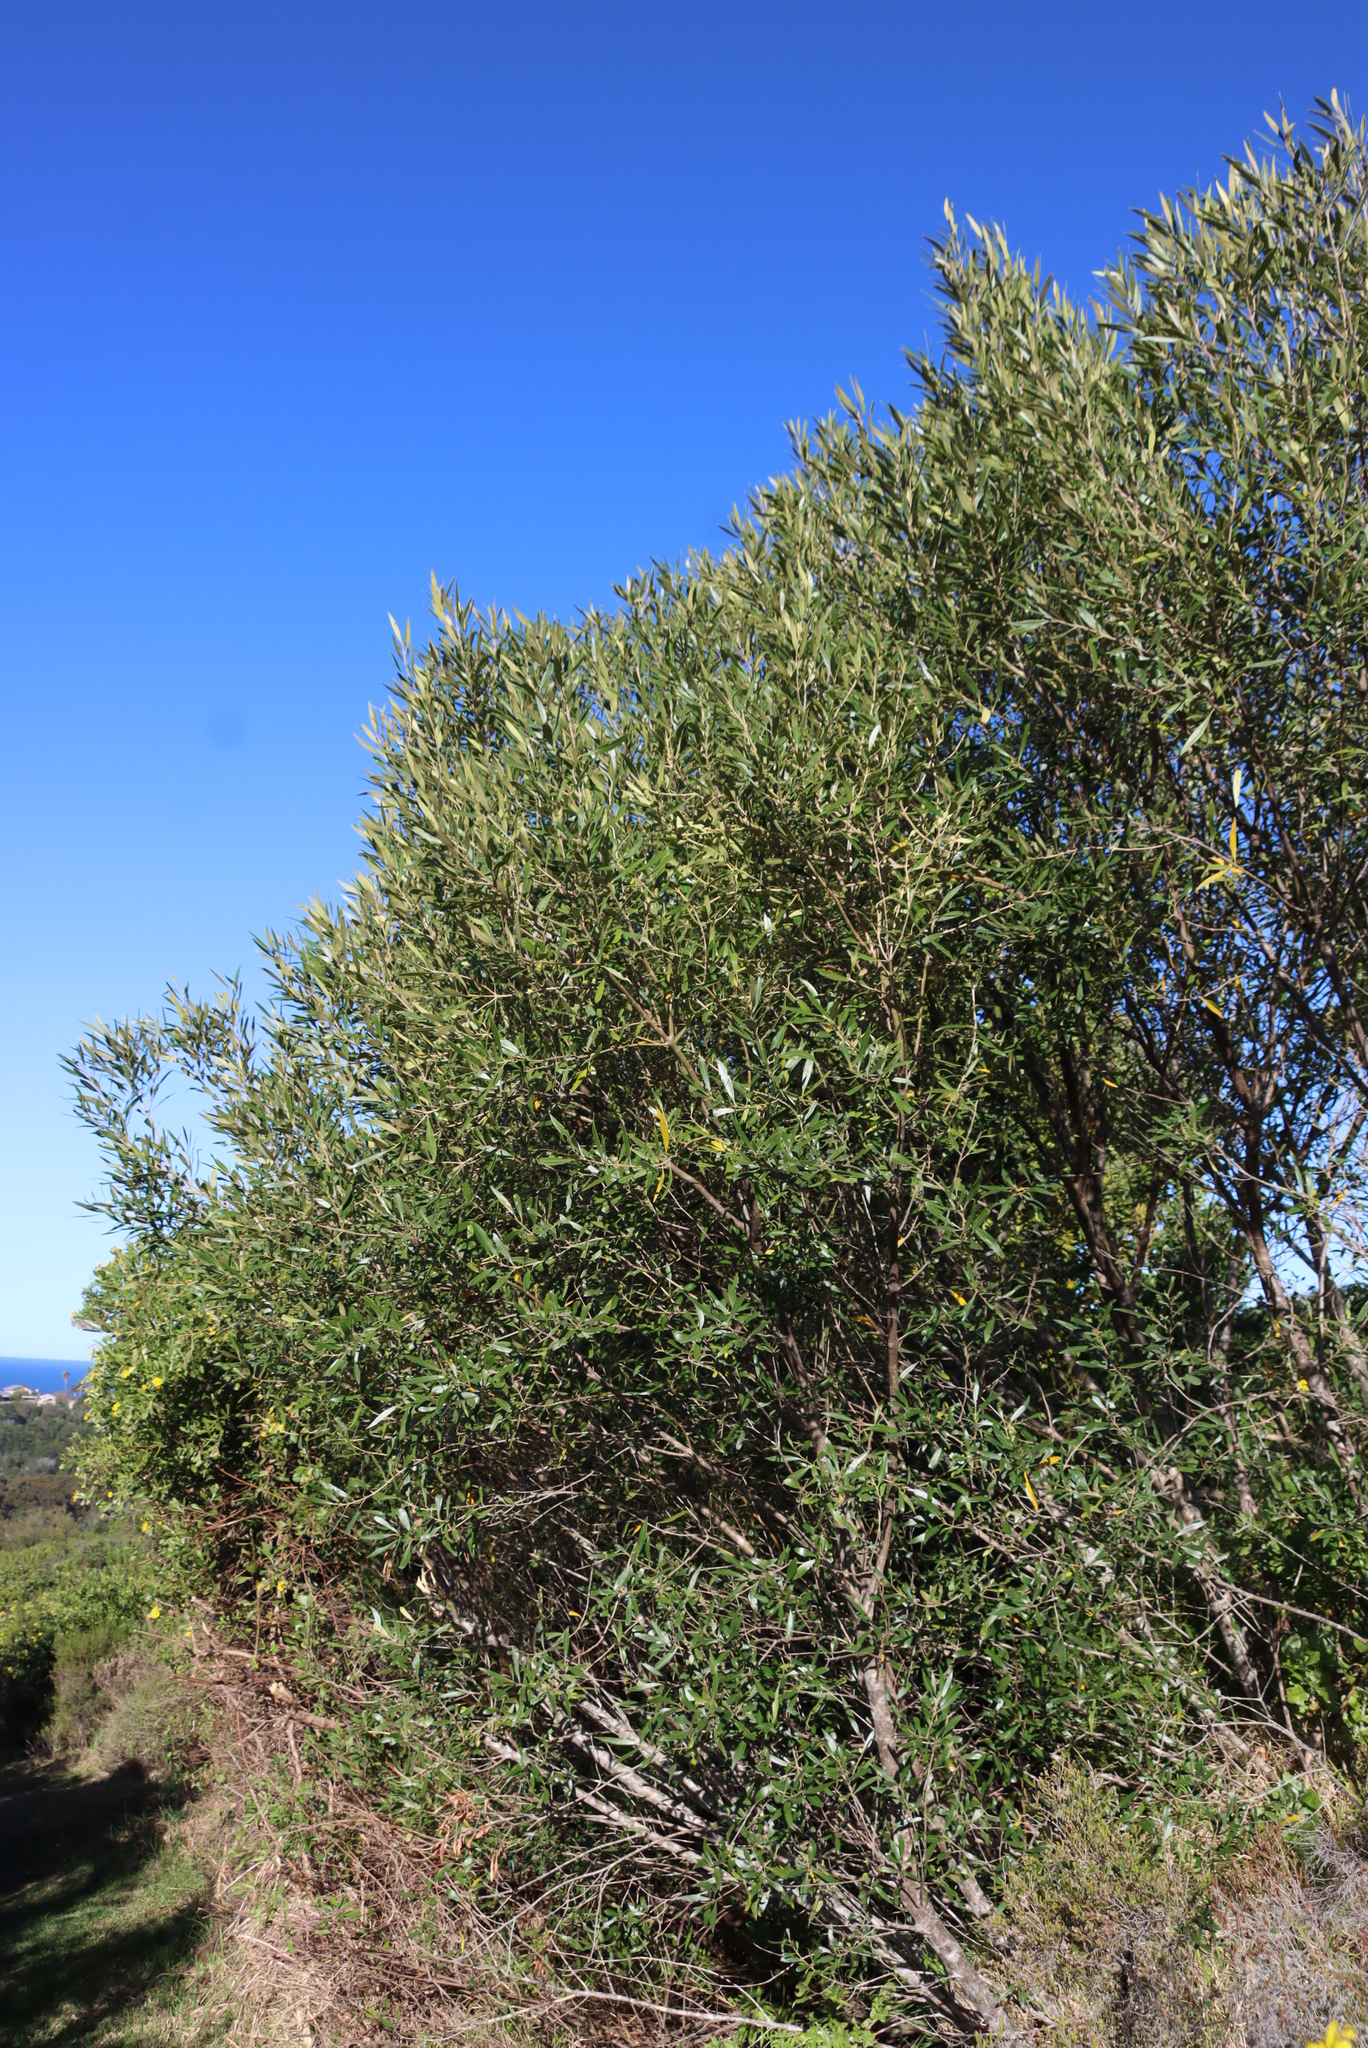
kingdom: Plantae
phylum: Tracheophyta
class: Magnoliopsida
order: Lamiales
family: Oleaceae
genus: Olea
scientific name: Olea europaea
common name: Olive
